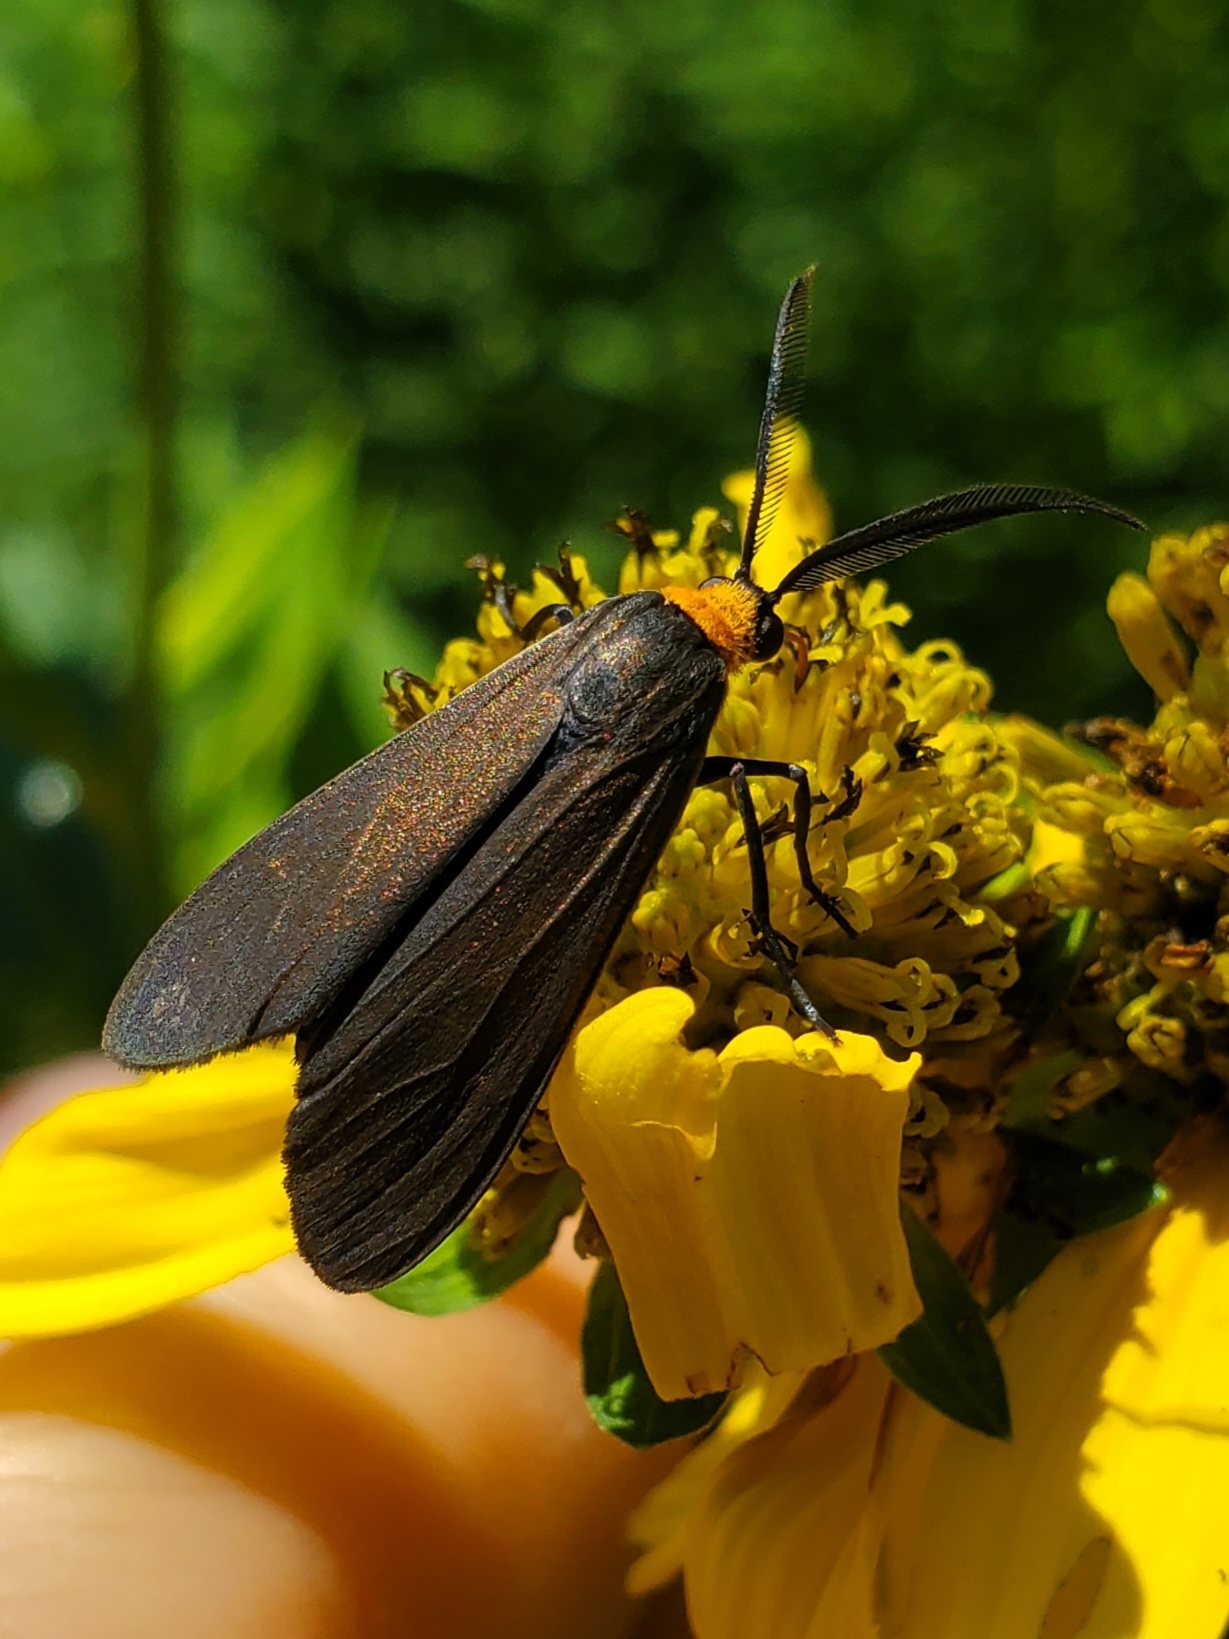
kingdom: Animalia
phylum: Arthropoda
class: Insecta
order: Lepidoptera
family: Erebidae
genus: Cisseps
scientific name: Cisseps fulvicollis
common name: Yellow-collared scape moth
